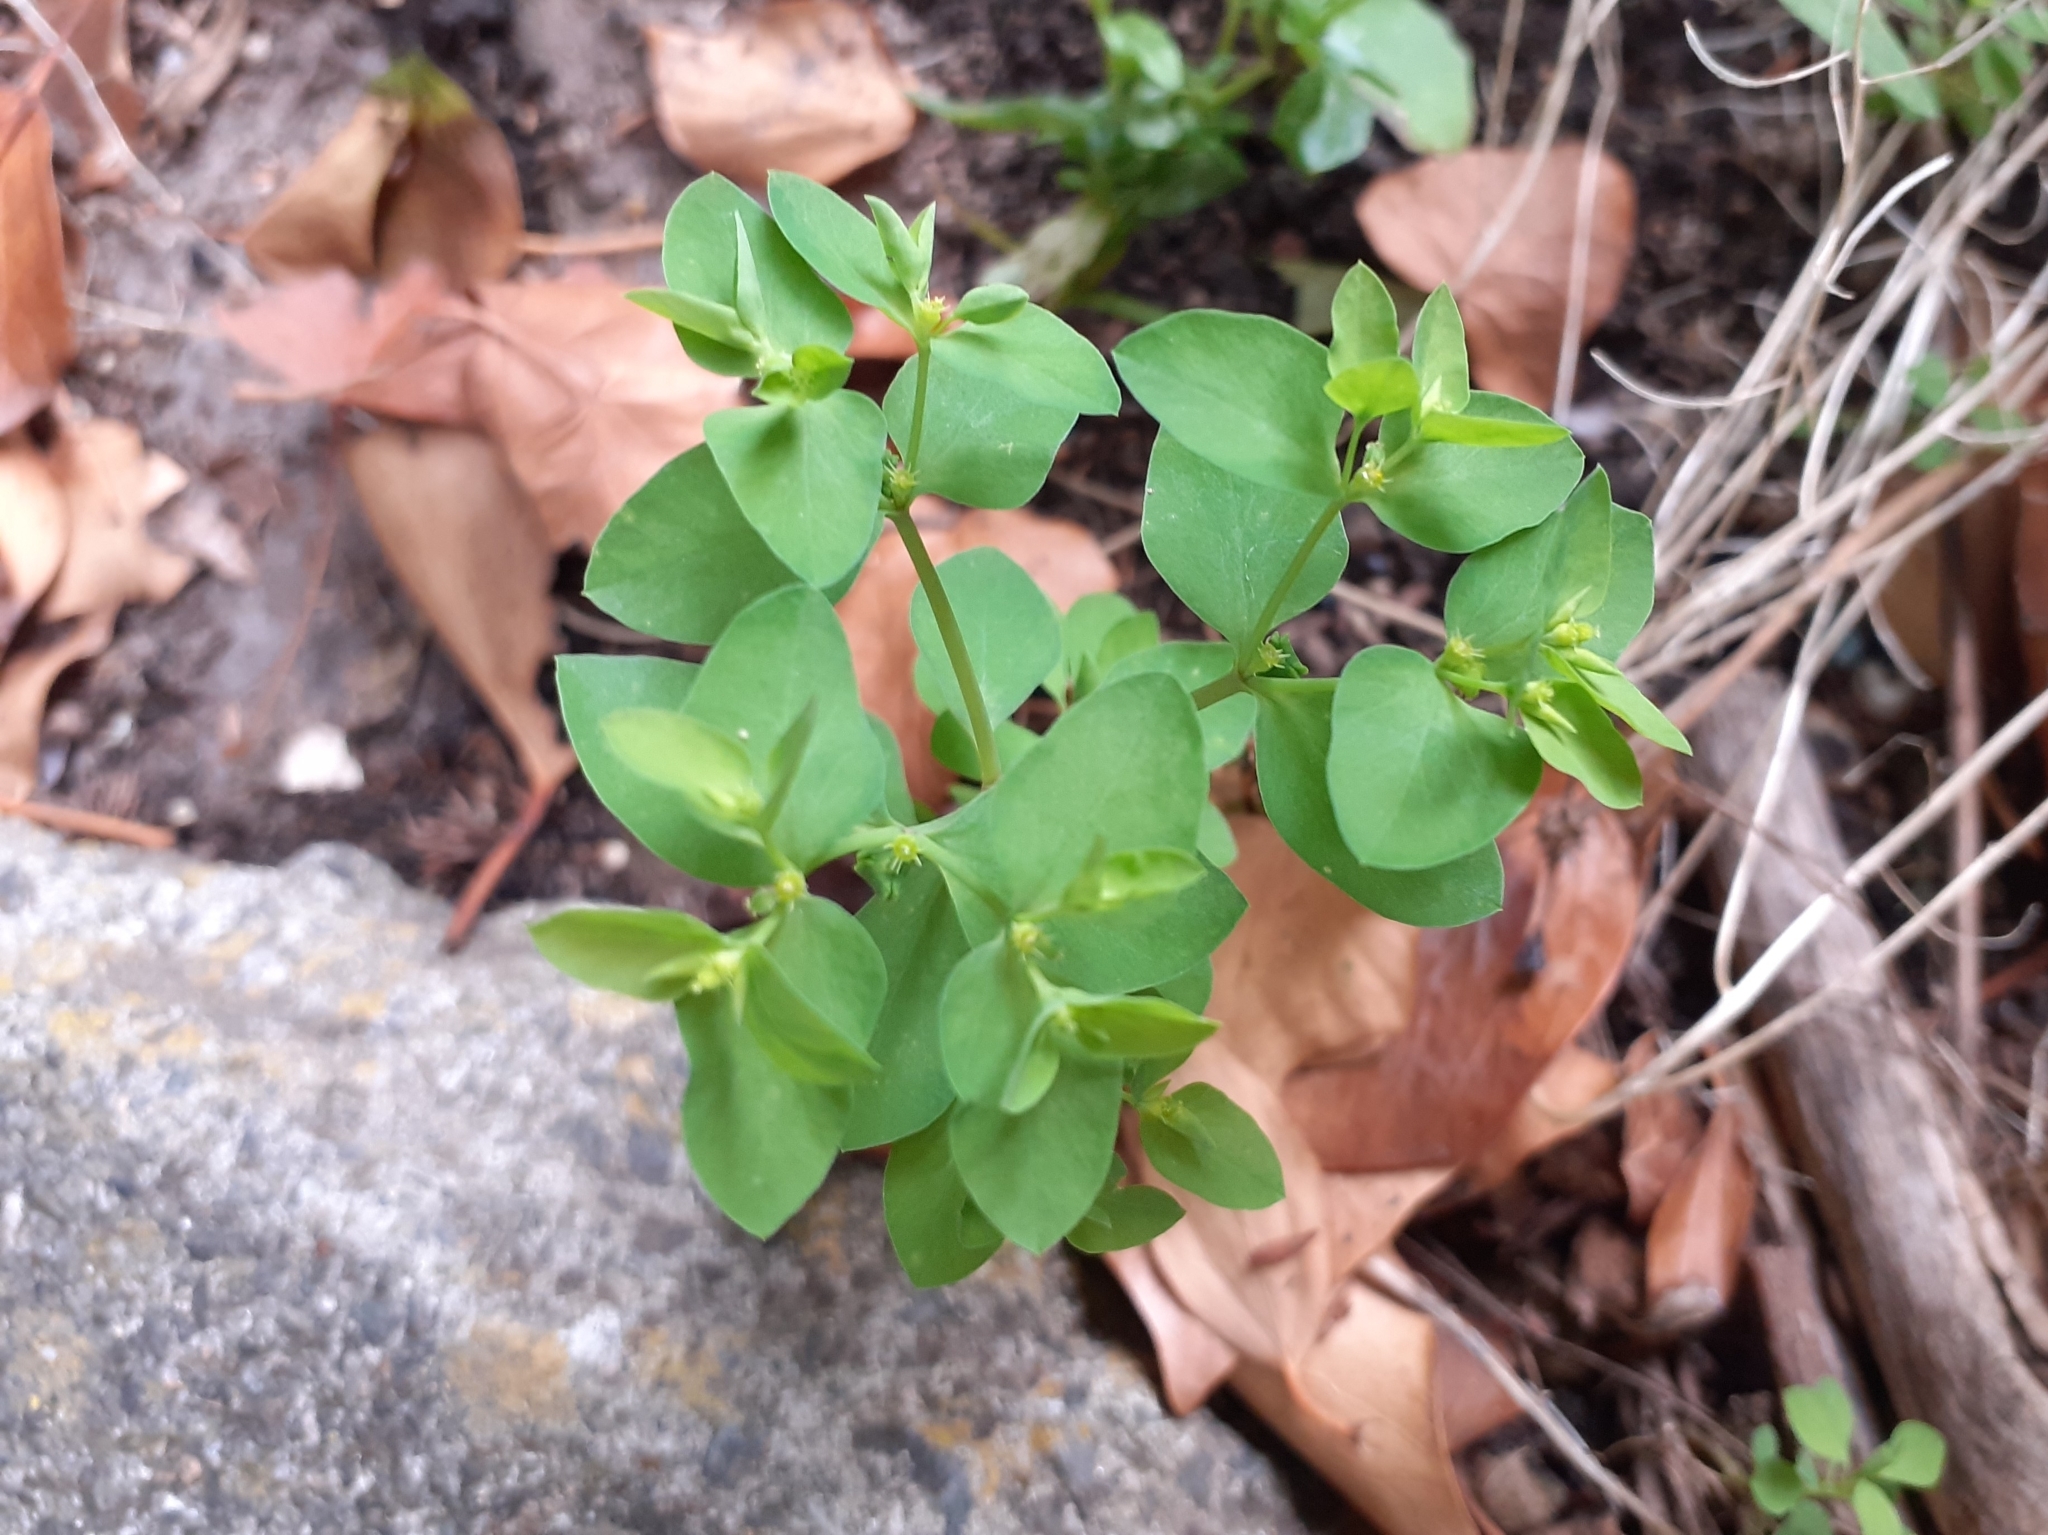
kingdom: Plantae
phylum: Tracheophyta
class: Magnoliopsida
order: Malpighiales
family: Euphorbiaceae
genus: Euphorbia
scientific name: Euphorbia peplus
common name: Petty spurge
